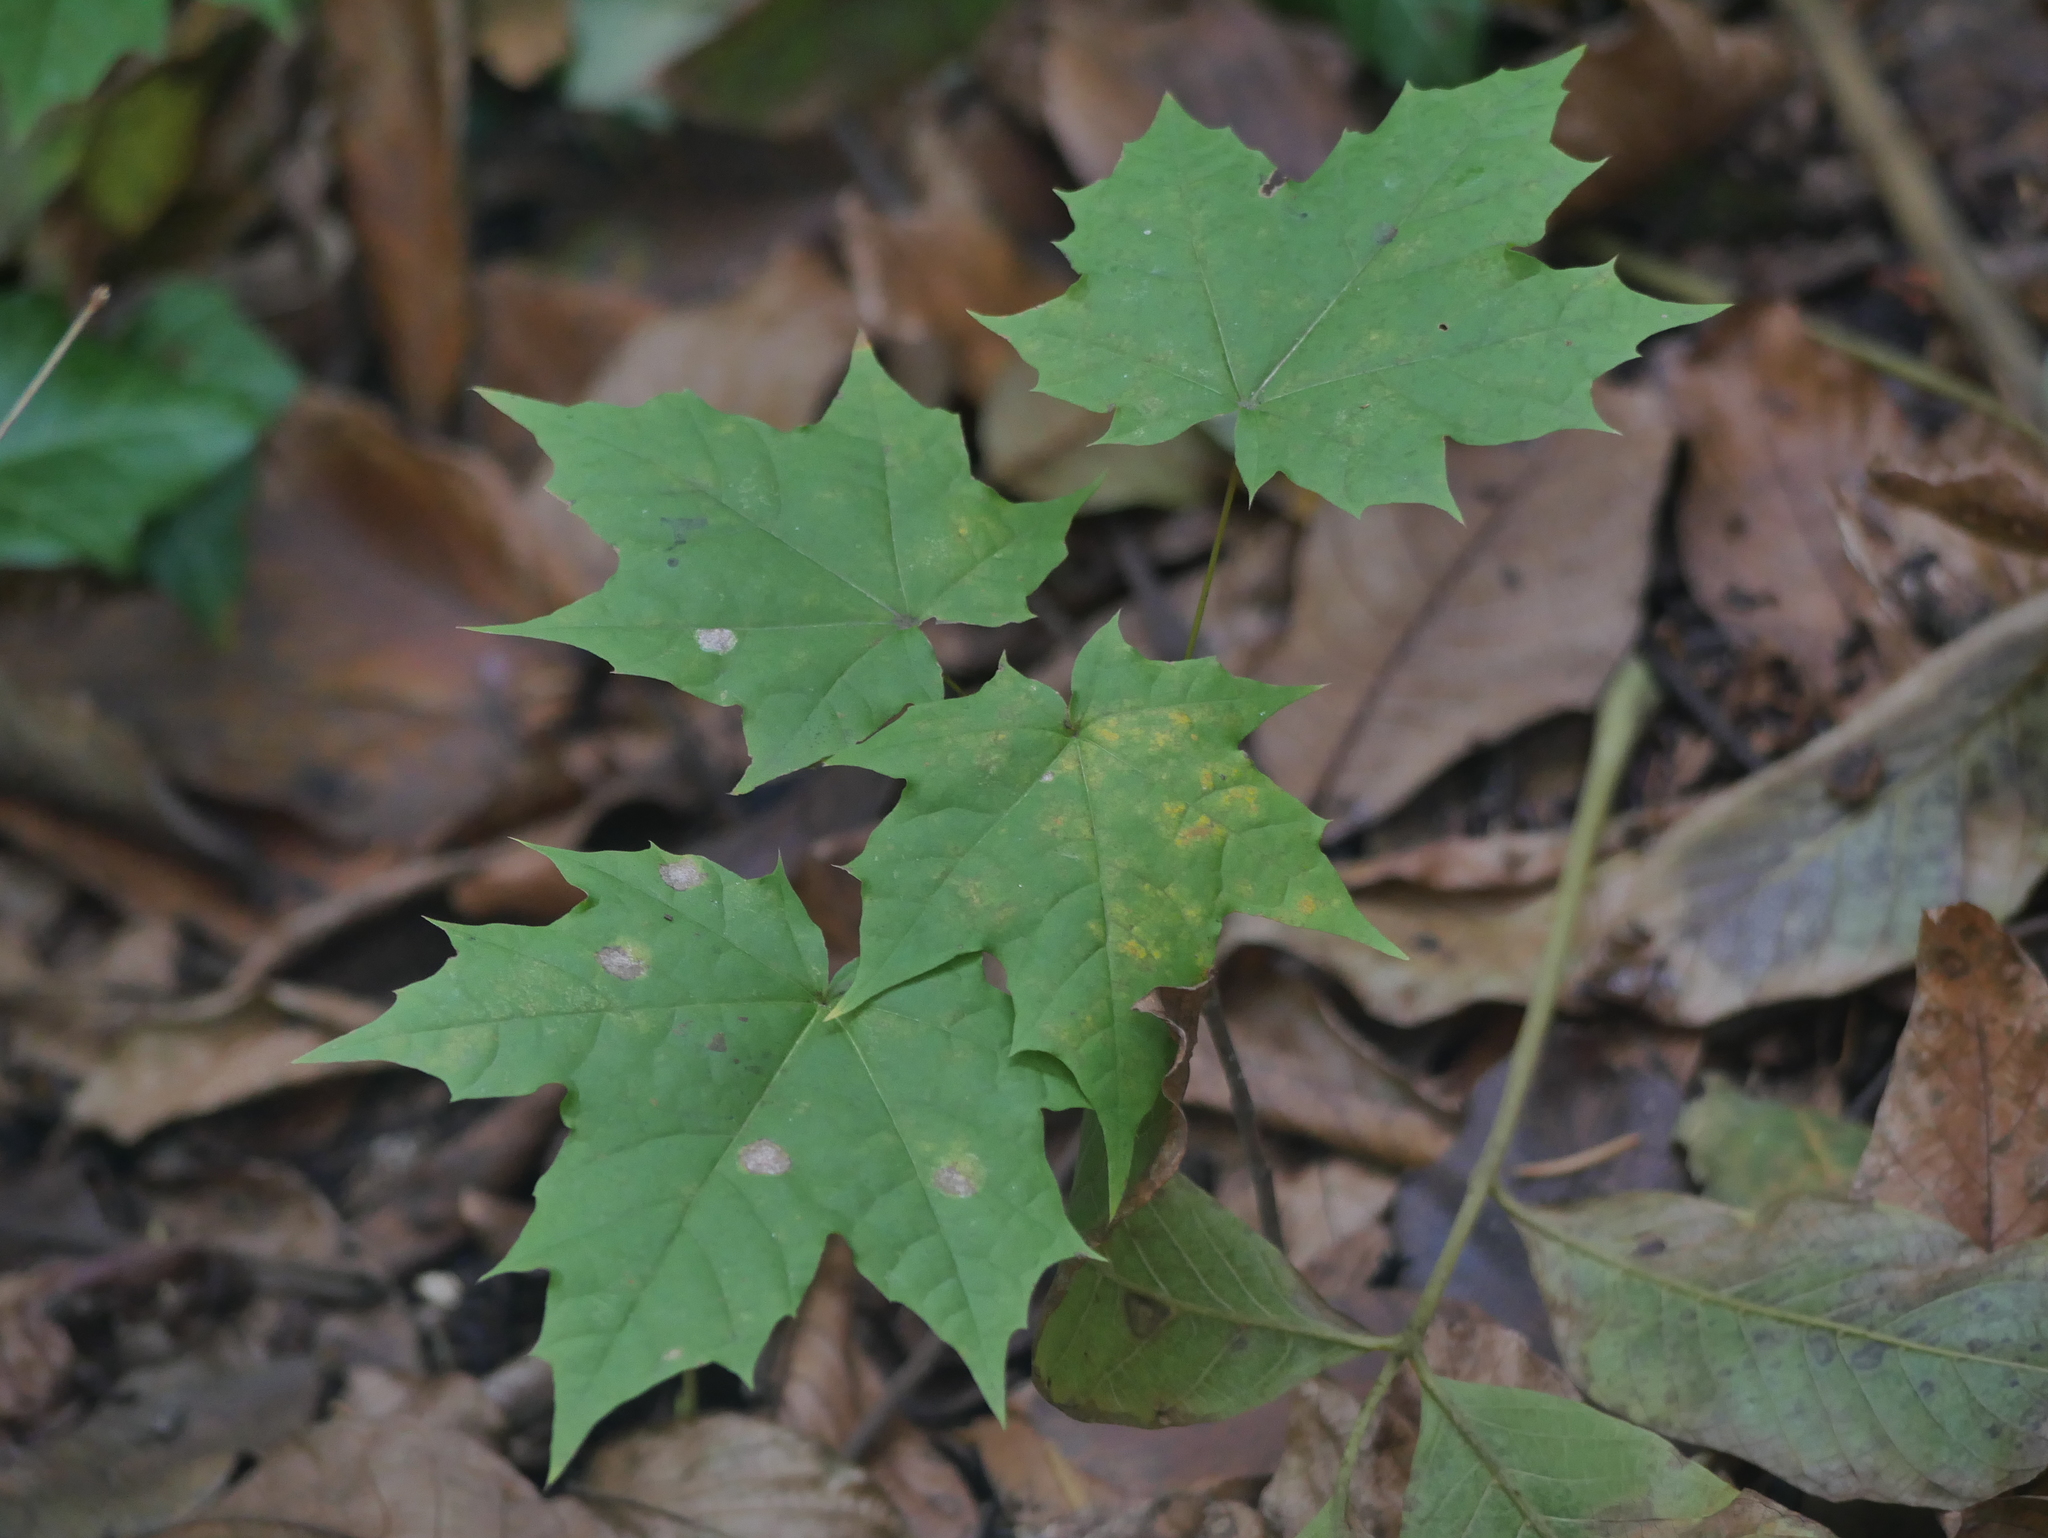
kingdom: Plantae
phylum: Tracheophyta
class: Magnoliopsida
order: Sapindales
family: Sapindaceae
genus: Acer
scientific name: Acer platanoides
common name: Norway maple
